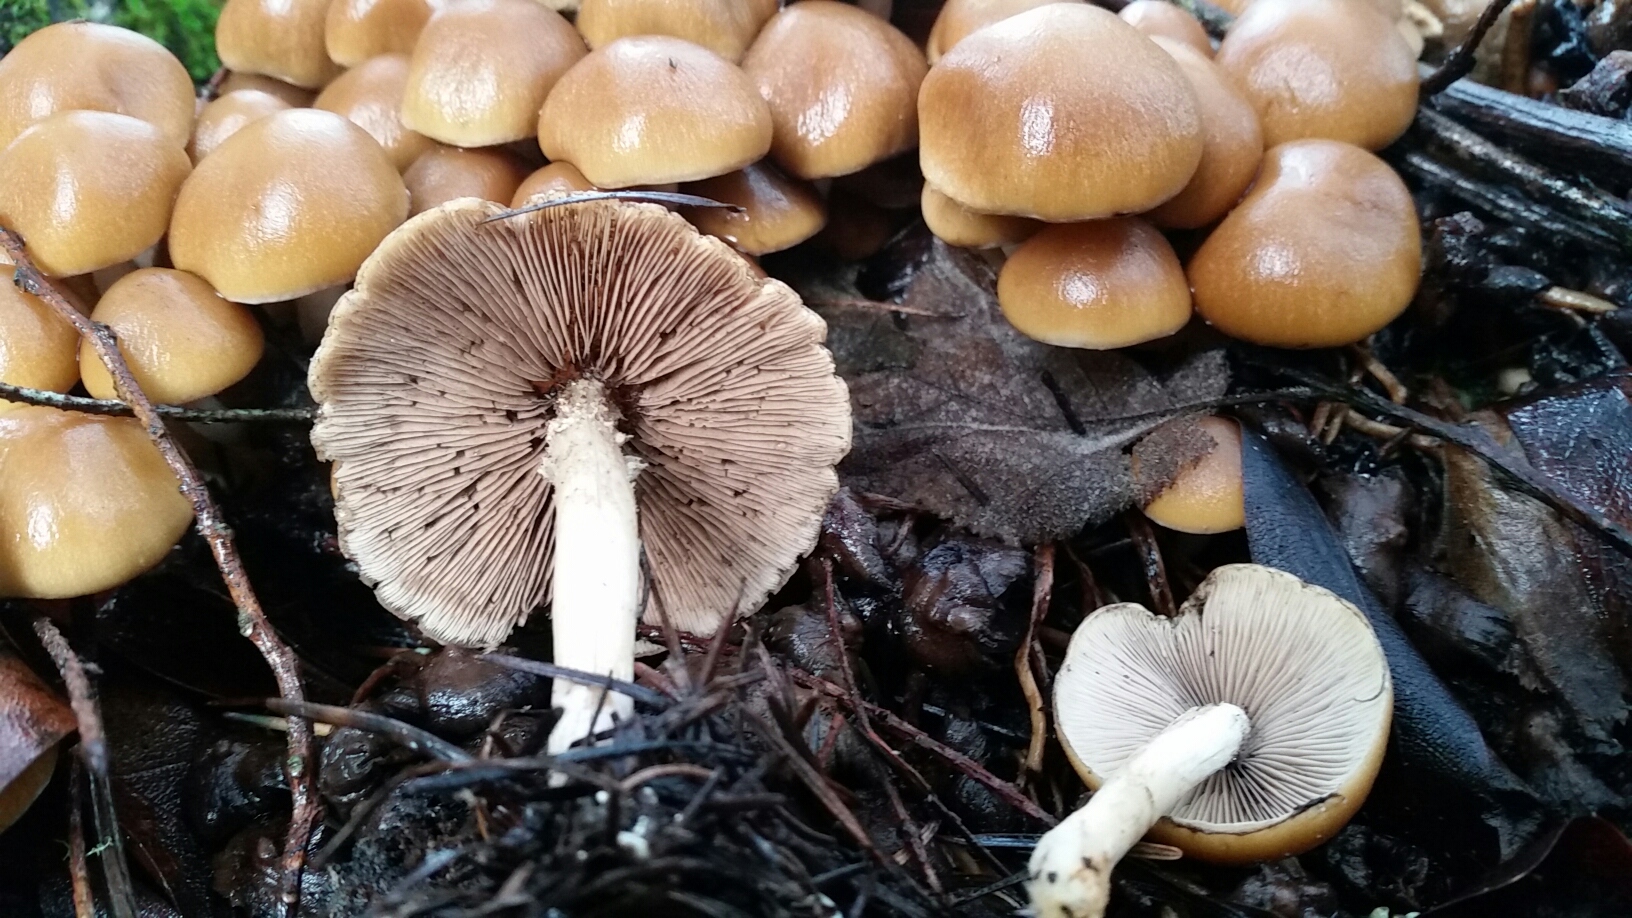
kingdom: Fungi
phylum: Basidiomycota
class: Agaricomycetes
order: Agaricales
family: Psathyrellaceae
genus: Psathyrella
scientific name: Psathyrella piluliformis
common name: Common stump brittlestem
